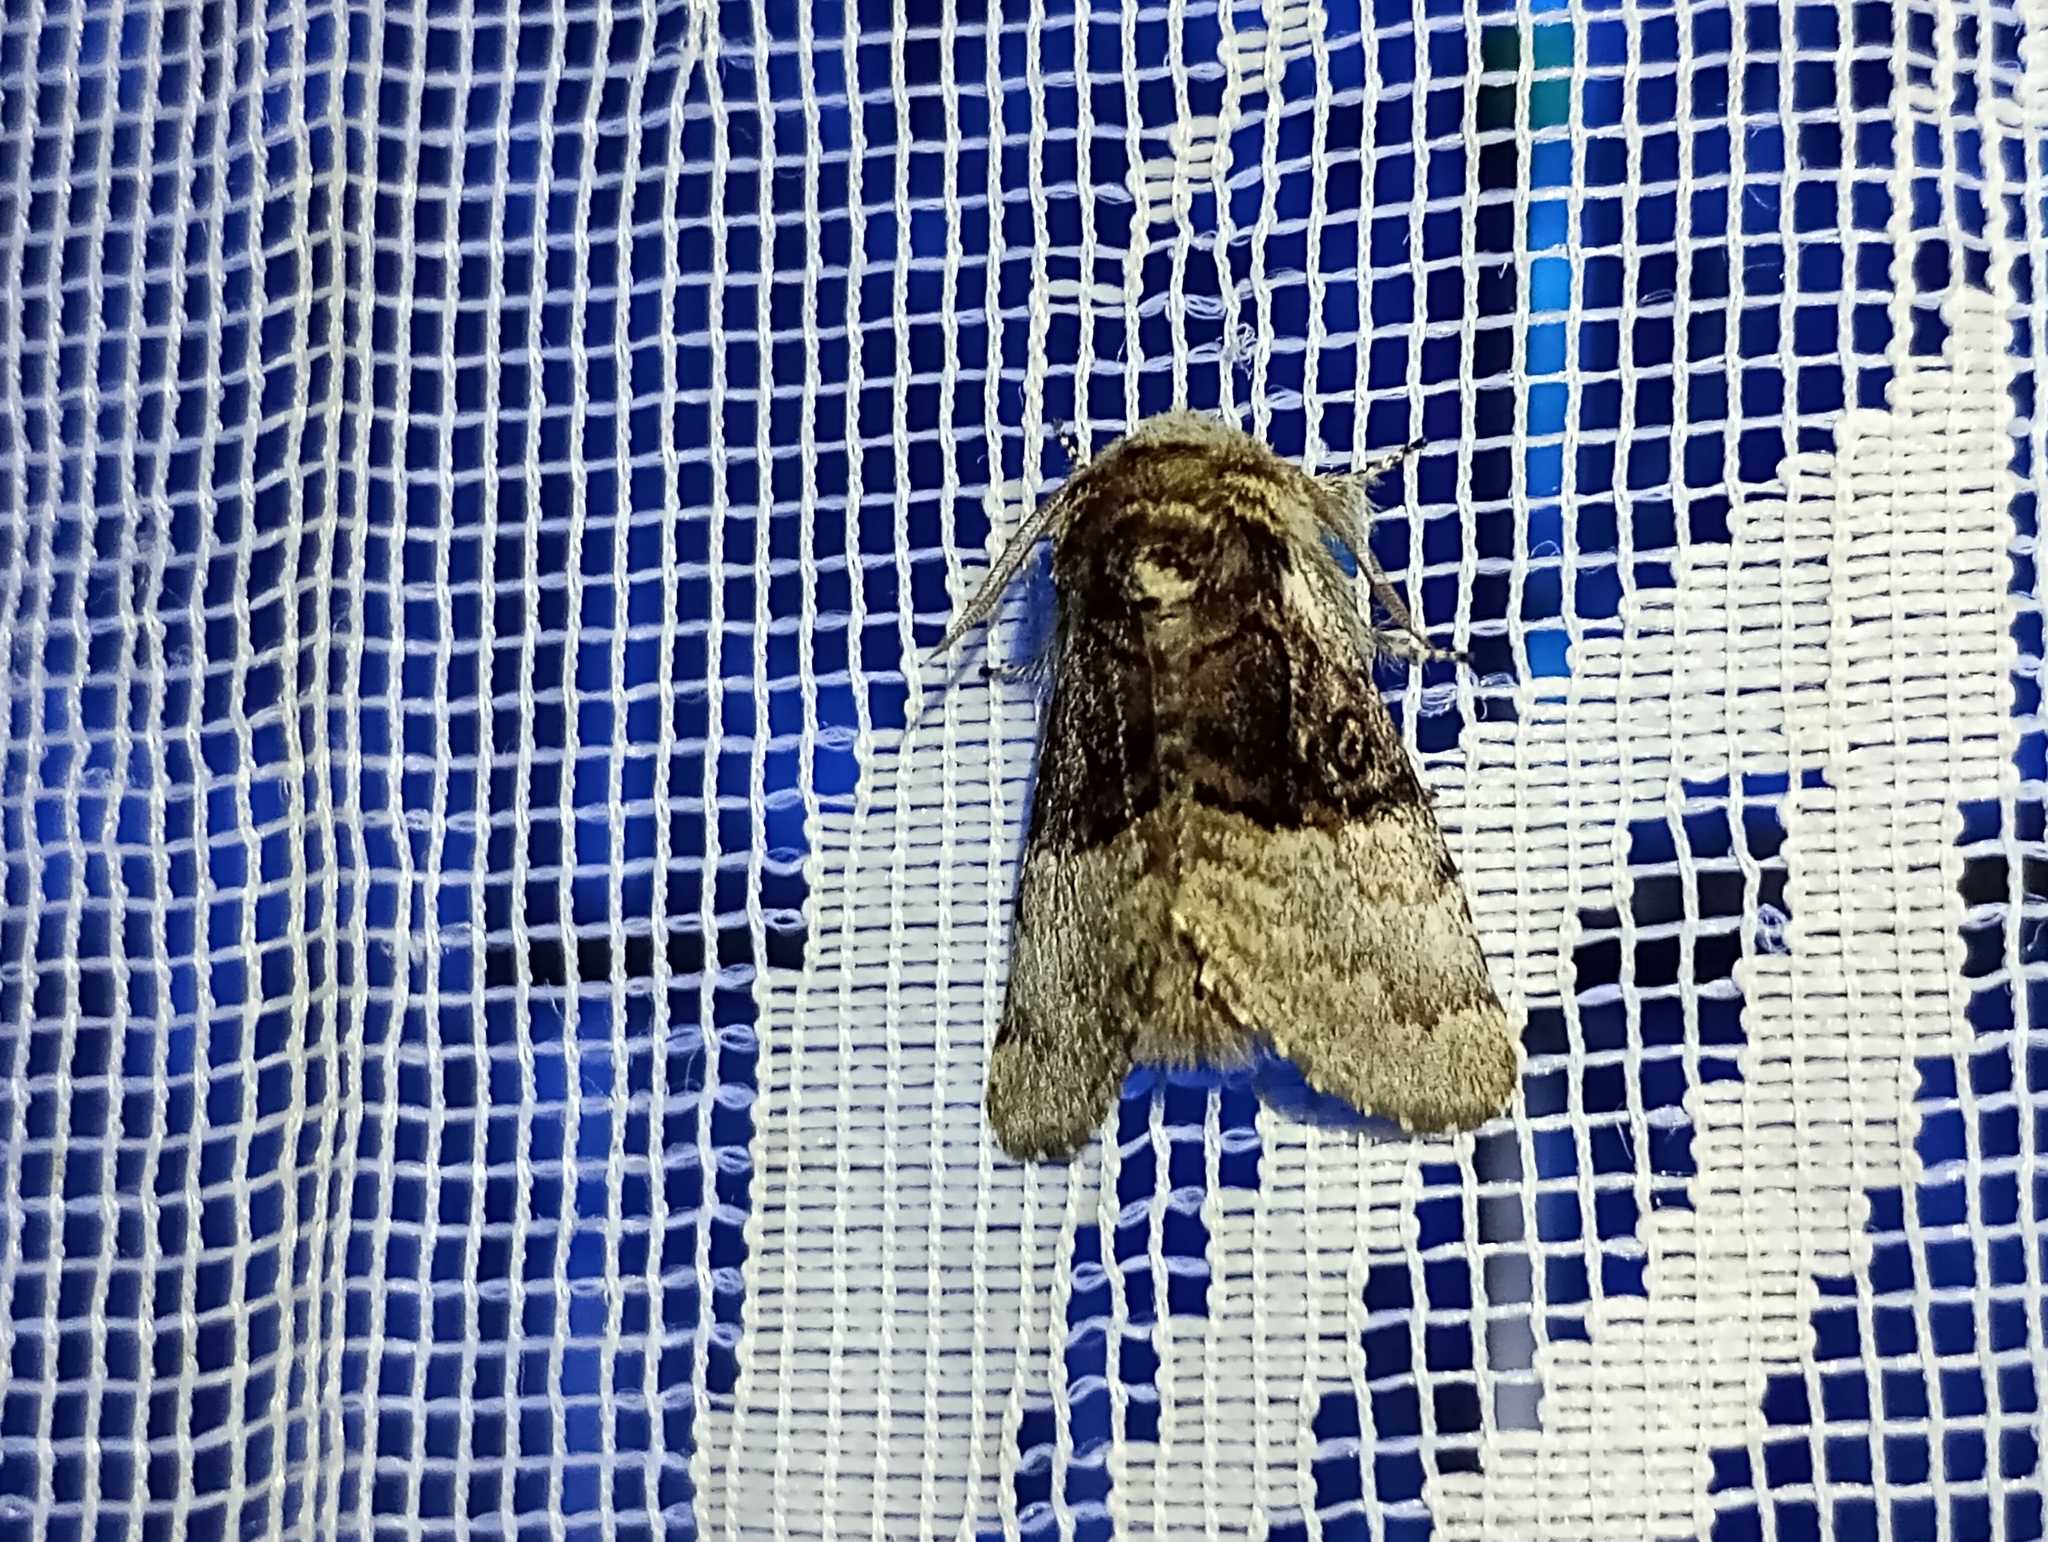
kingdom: Animalia
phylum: Arthropoda
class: Insecta
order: Lepidoptera
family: Noctuidae
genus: Colocasia
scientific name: Colocasia coryli
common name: Nut-tree tussock
